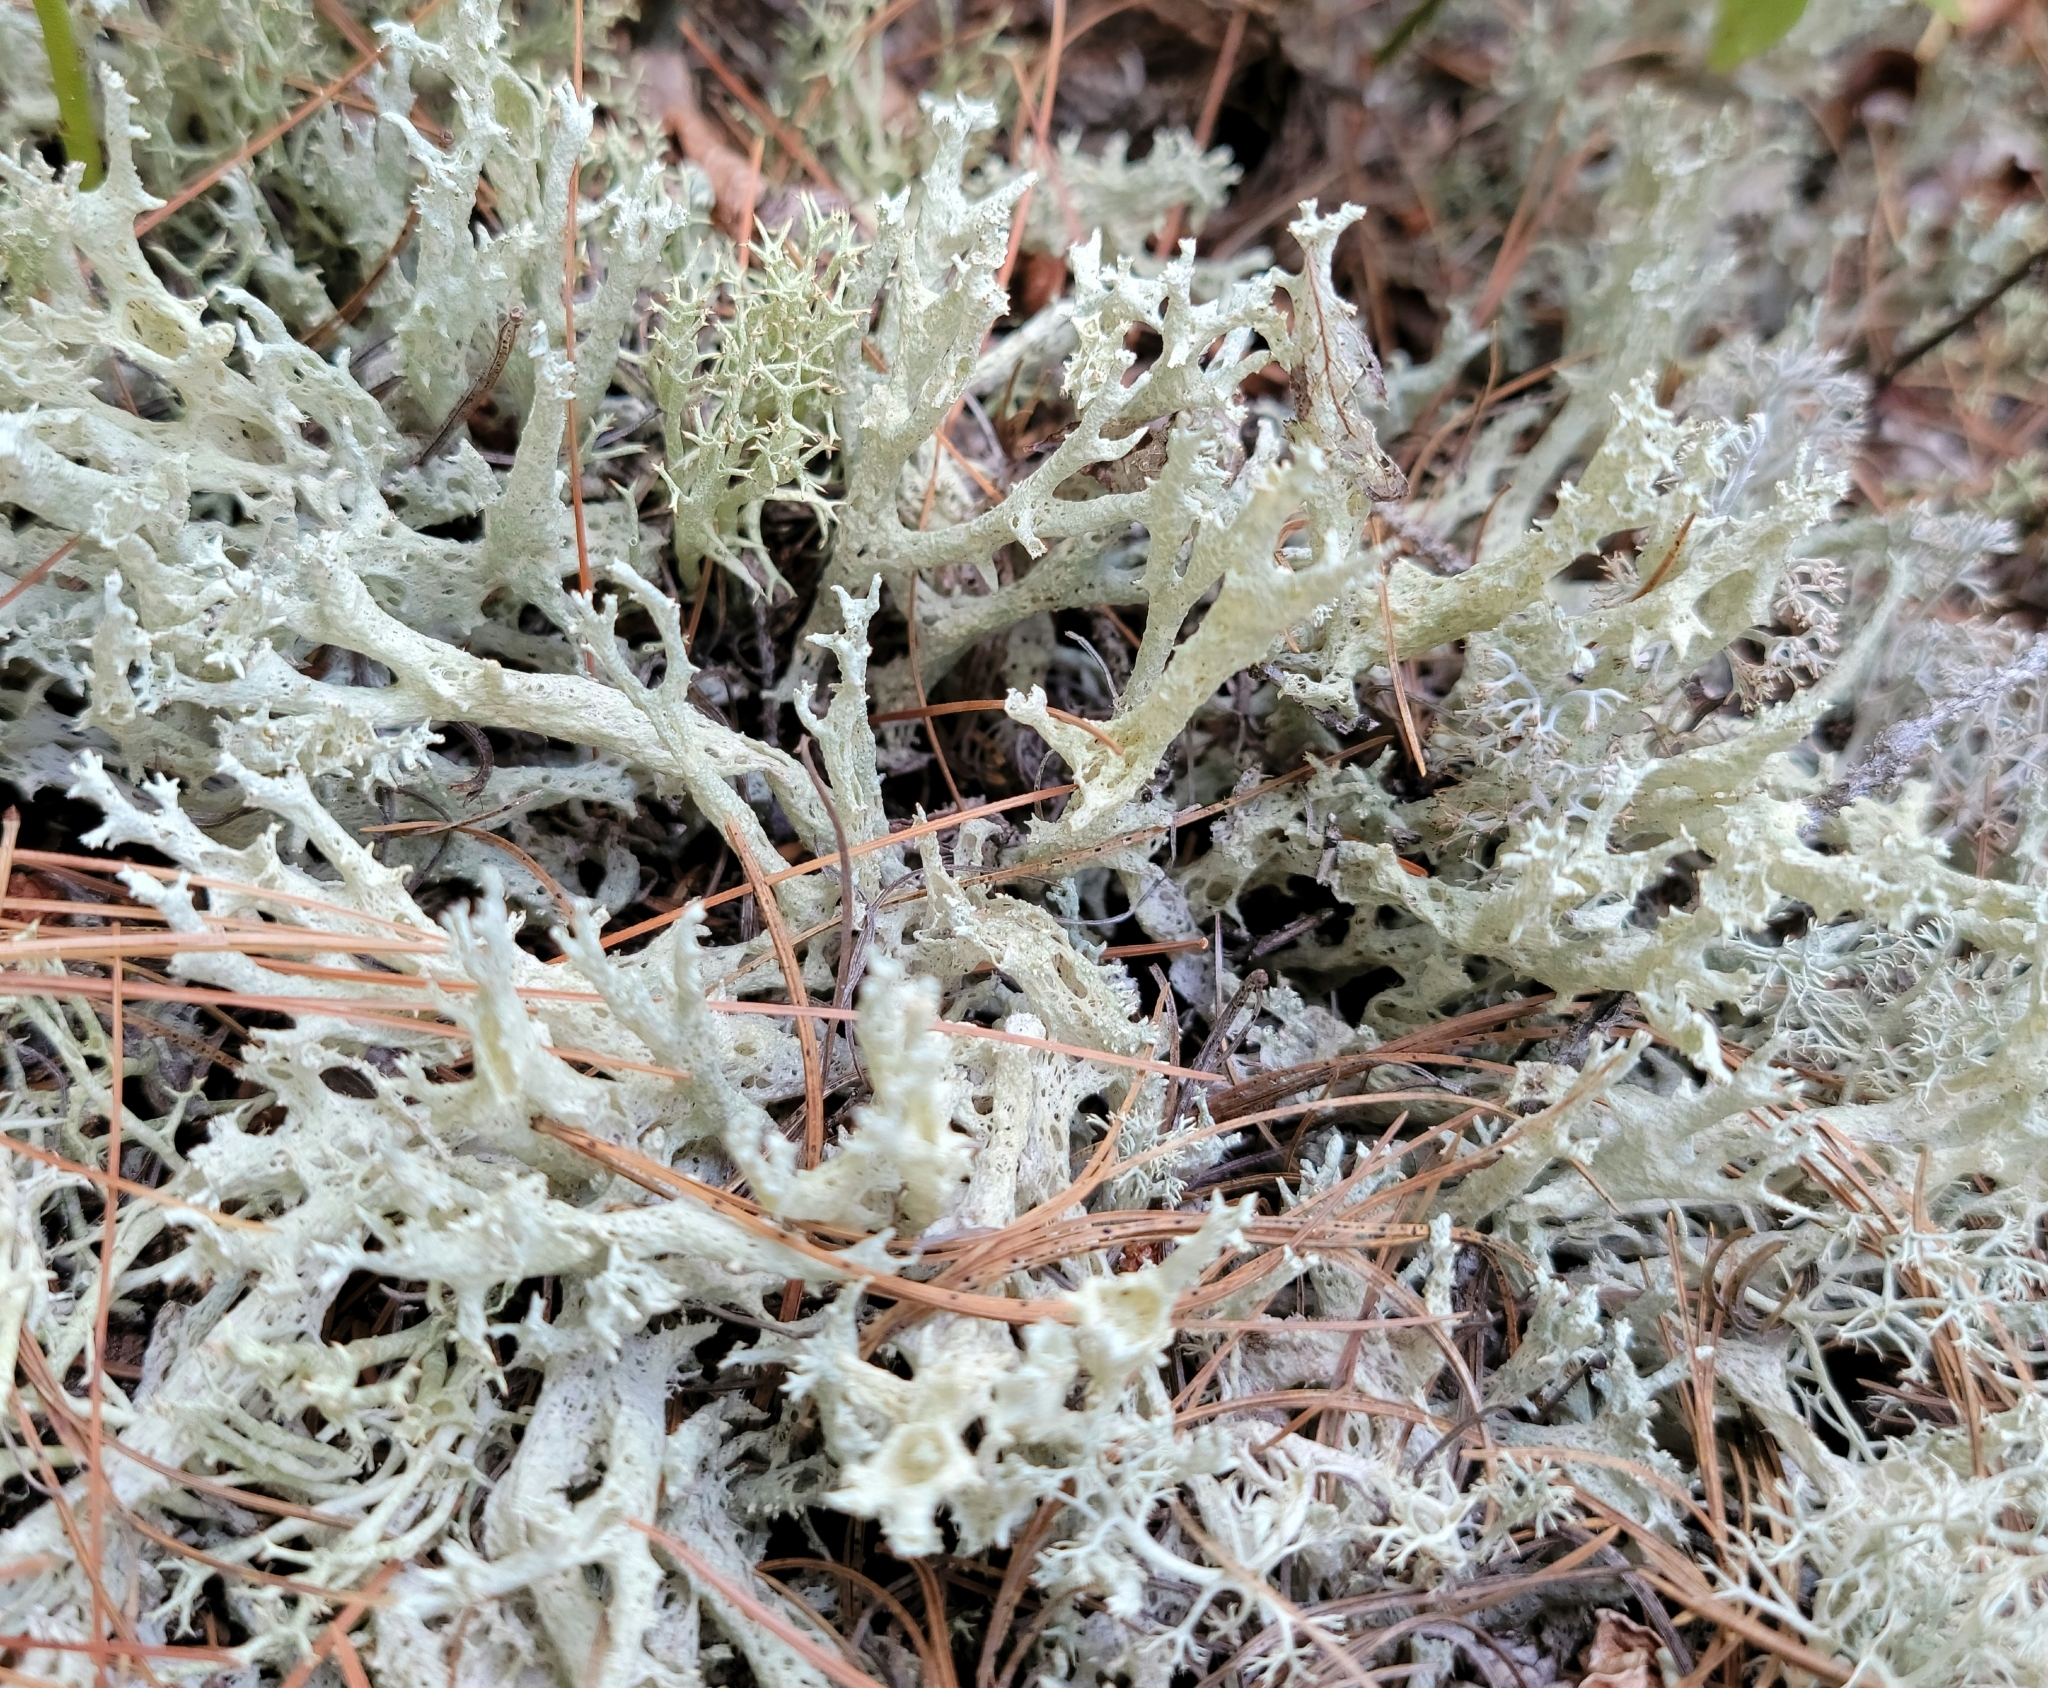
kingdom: Fungi
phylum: Ascomycota
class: Lecanoromycetes
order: Lecanorales
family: Cladoniaceae
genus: Cladonia
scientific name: Cladonia boryi
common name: Fishnet cladonia
